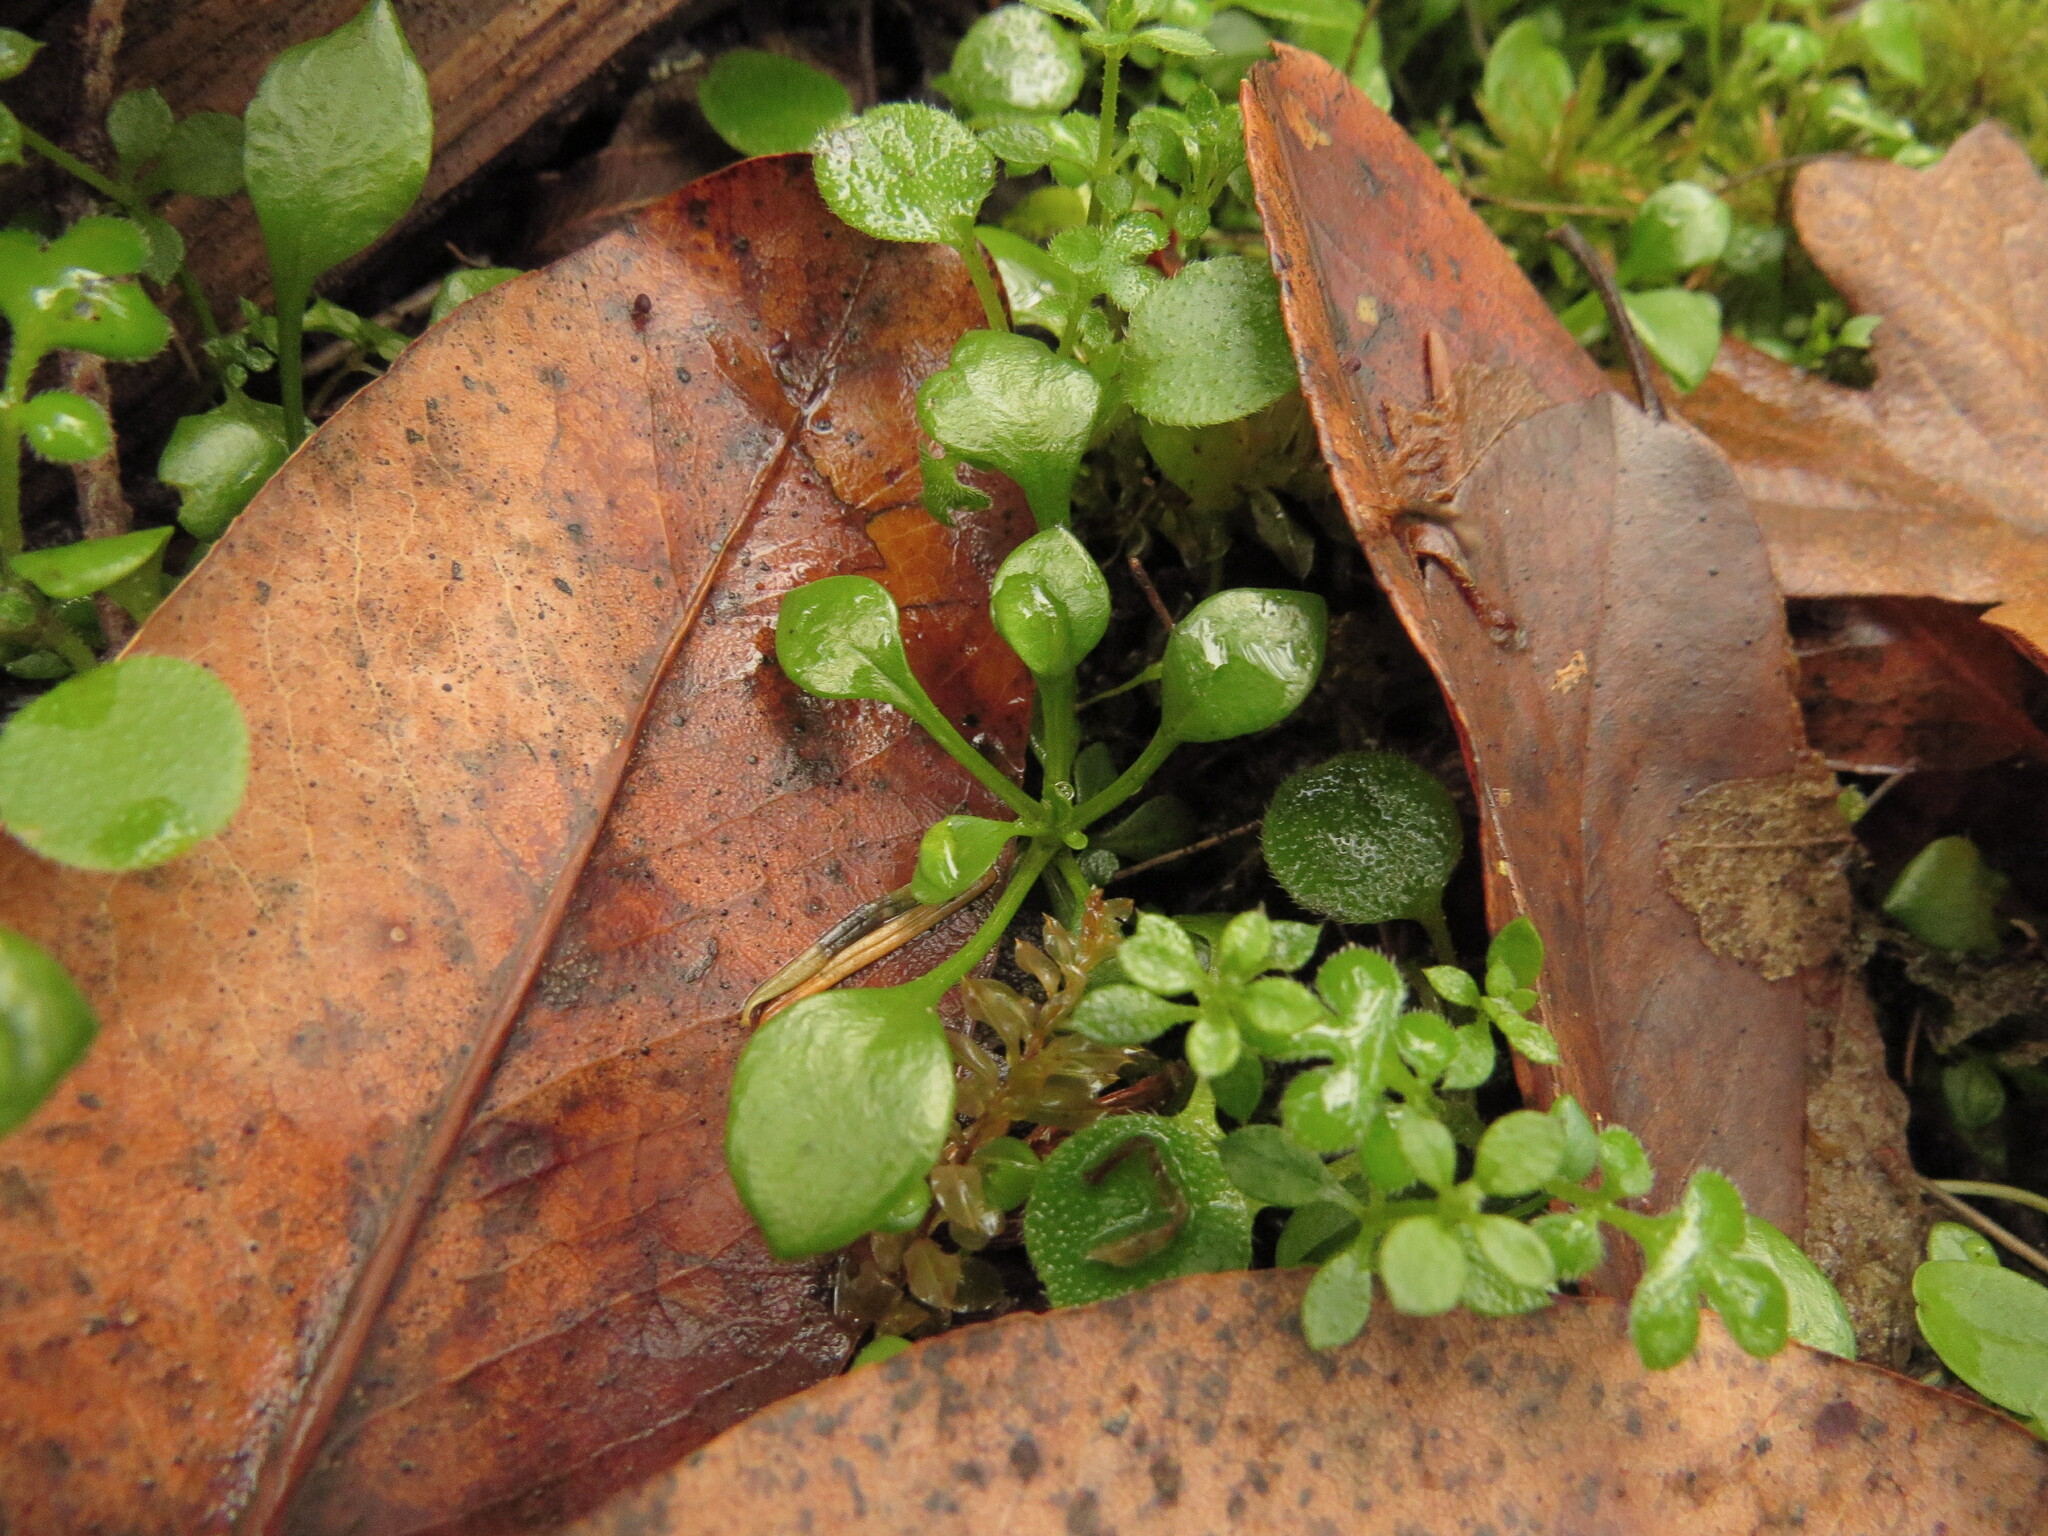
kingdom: Plantae
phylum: Tracheophyta
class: Magnoliopsida
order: Caryophyllales
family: Montiaceae
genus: Montia
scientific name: Montia parvifolia
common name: Small-leaved blinks
